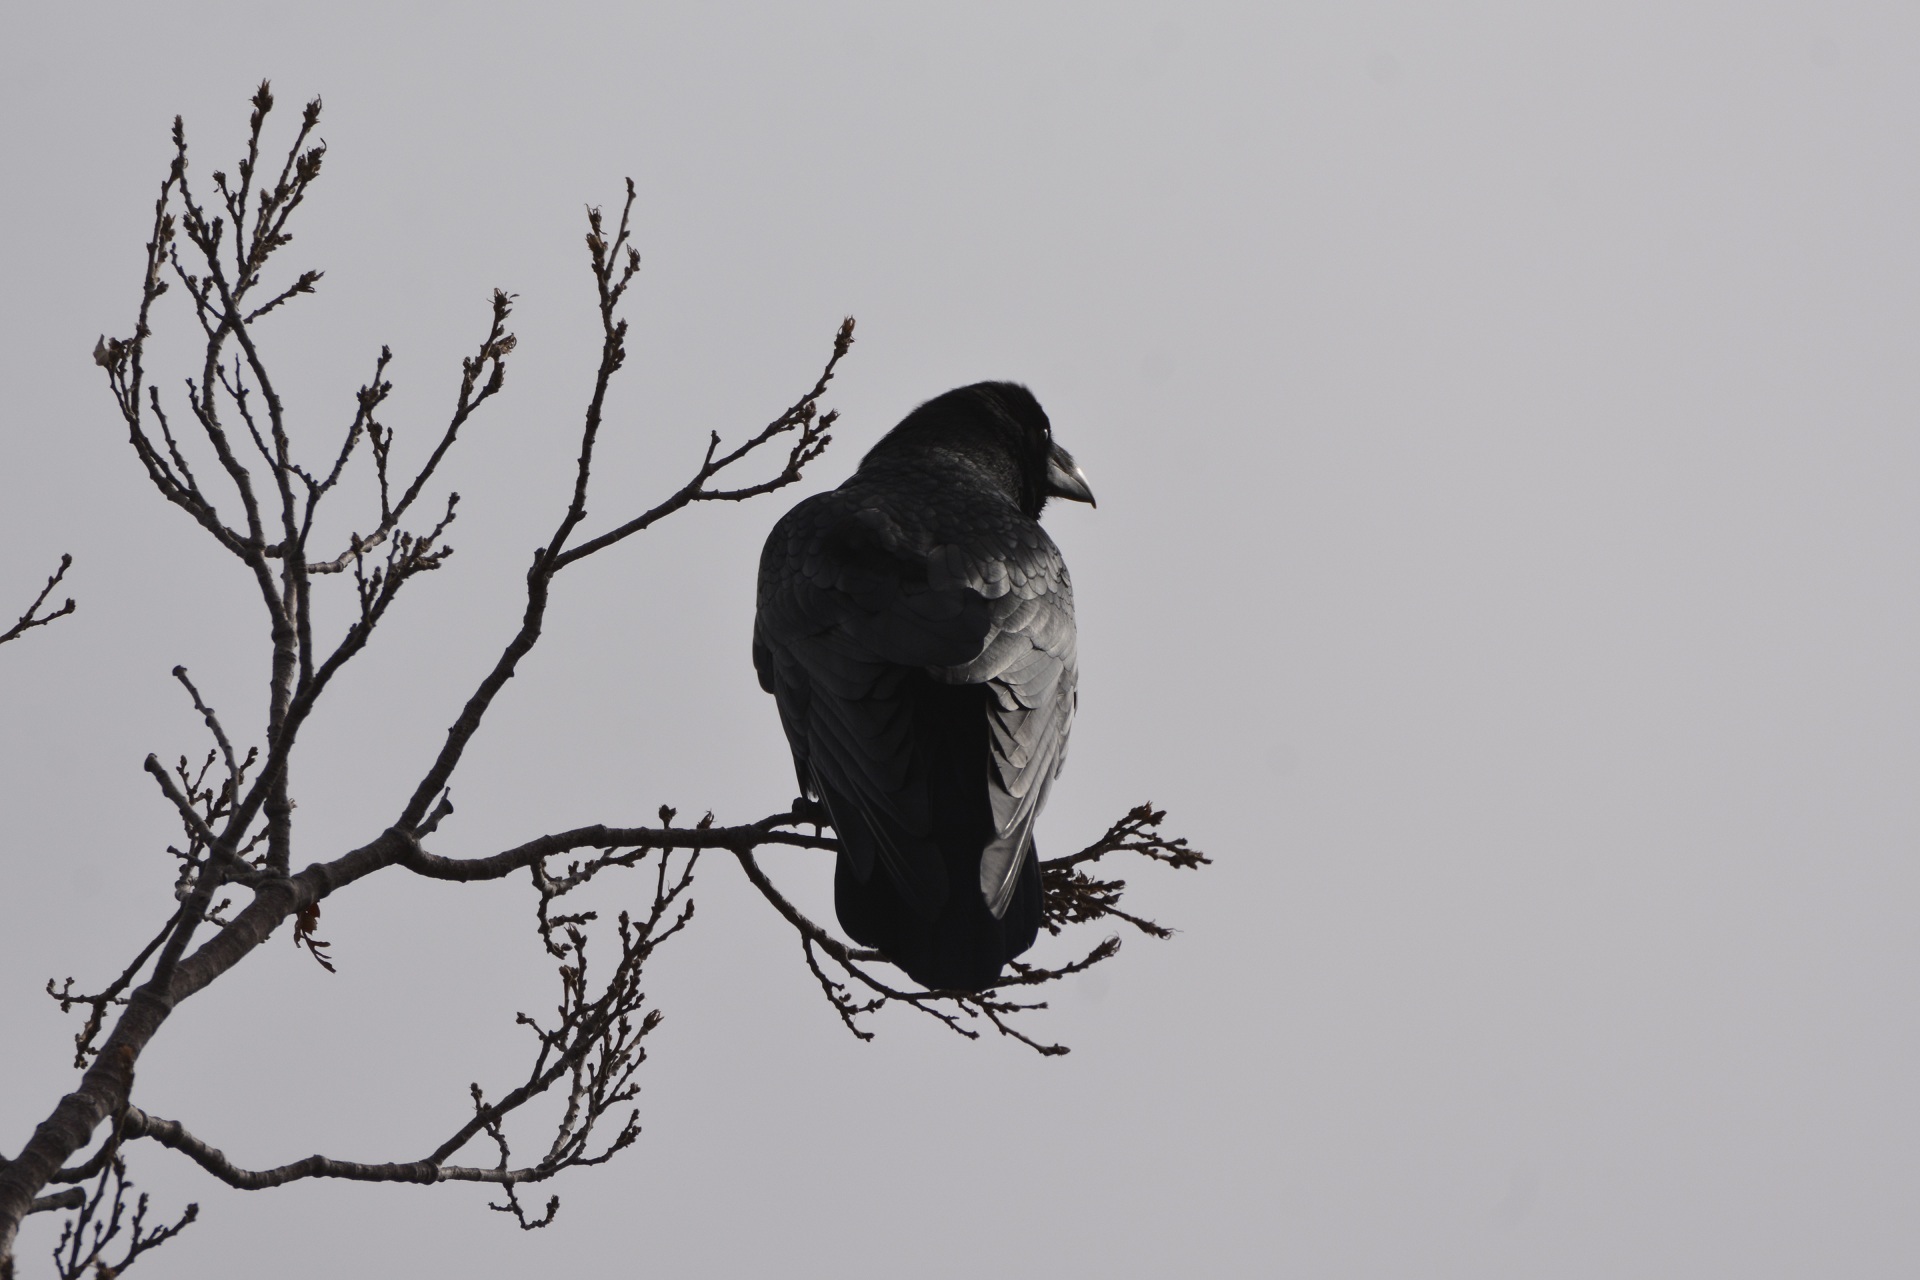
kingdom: Animalia
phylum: Chordata
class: Aves
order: Passeriformes
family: Corvidae
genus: Corvus
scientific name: Corvus corax
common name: Common raven
